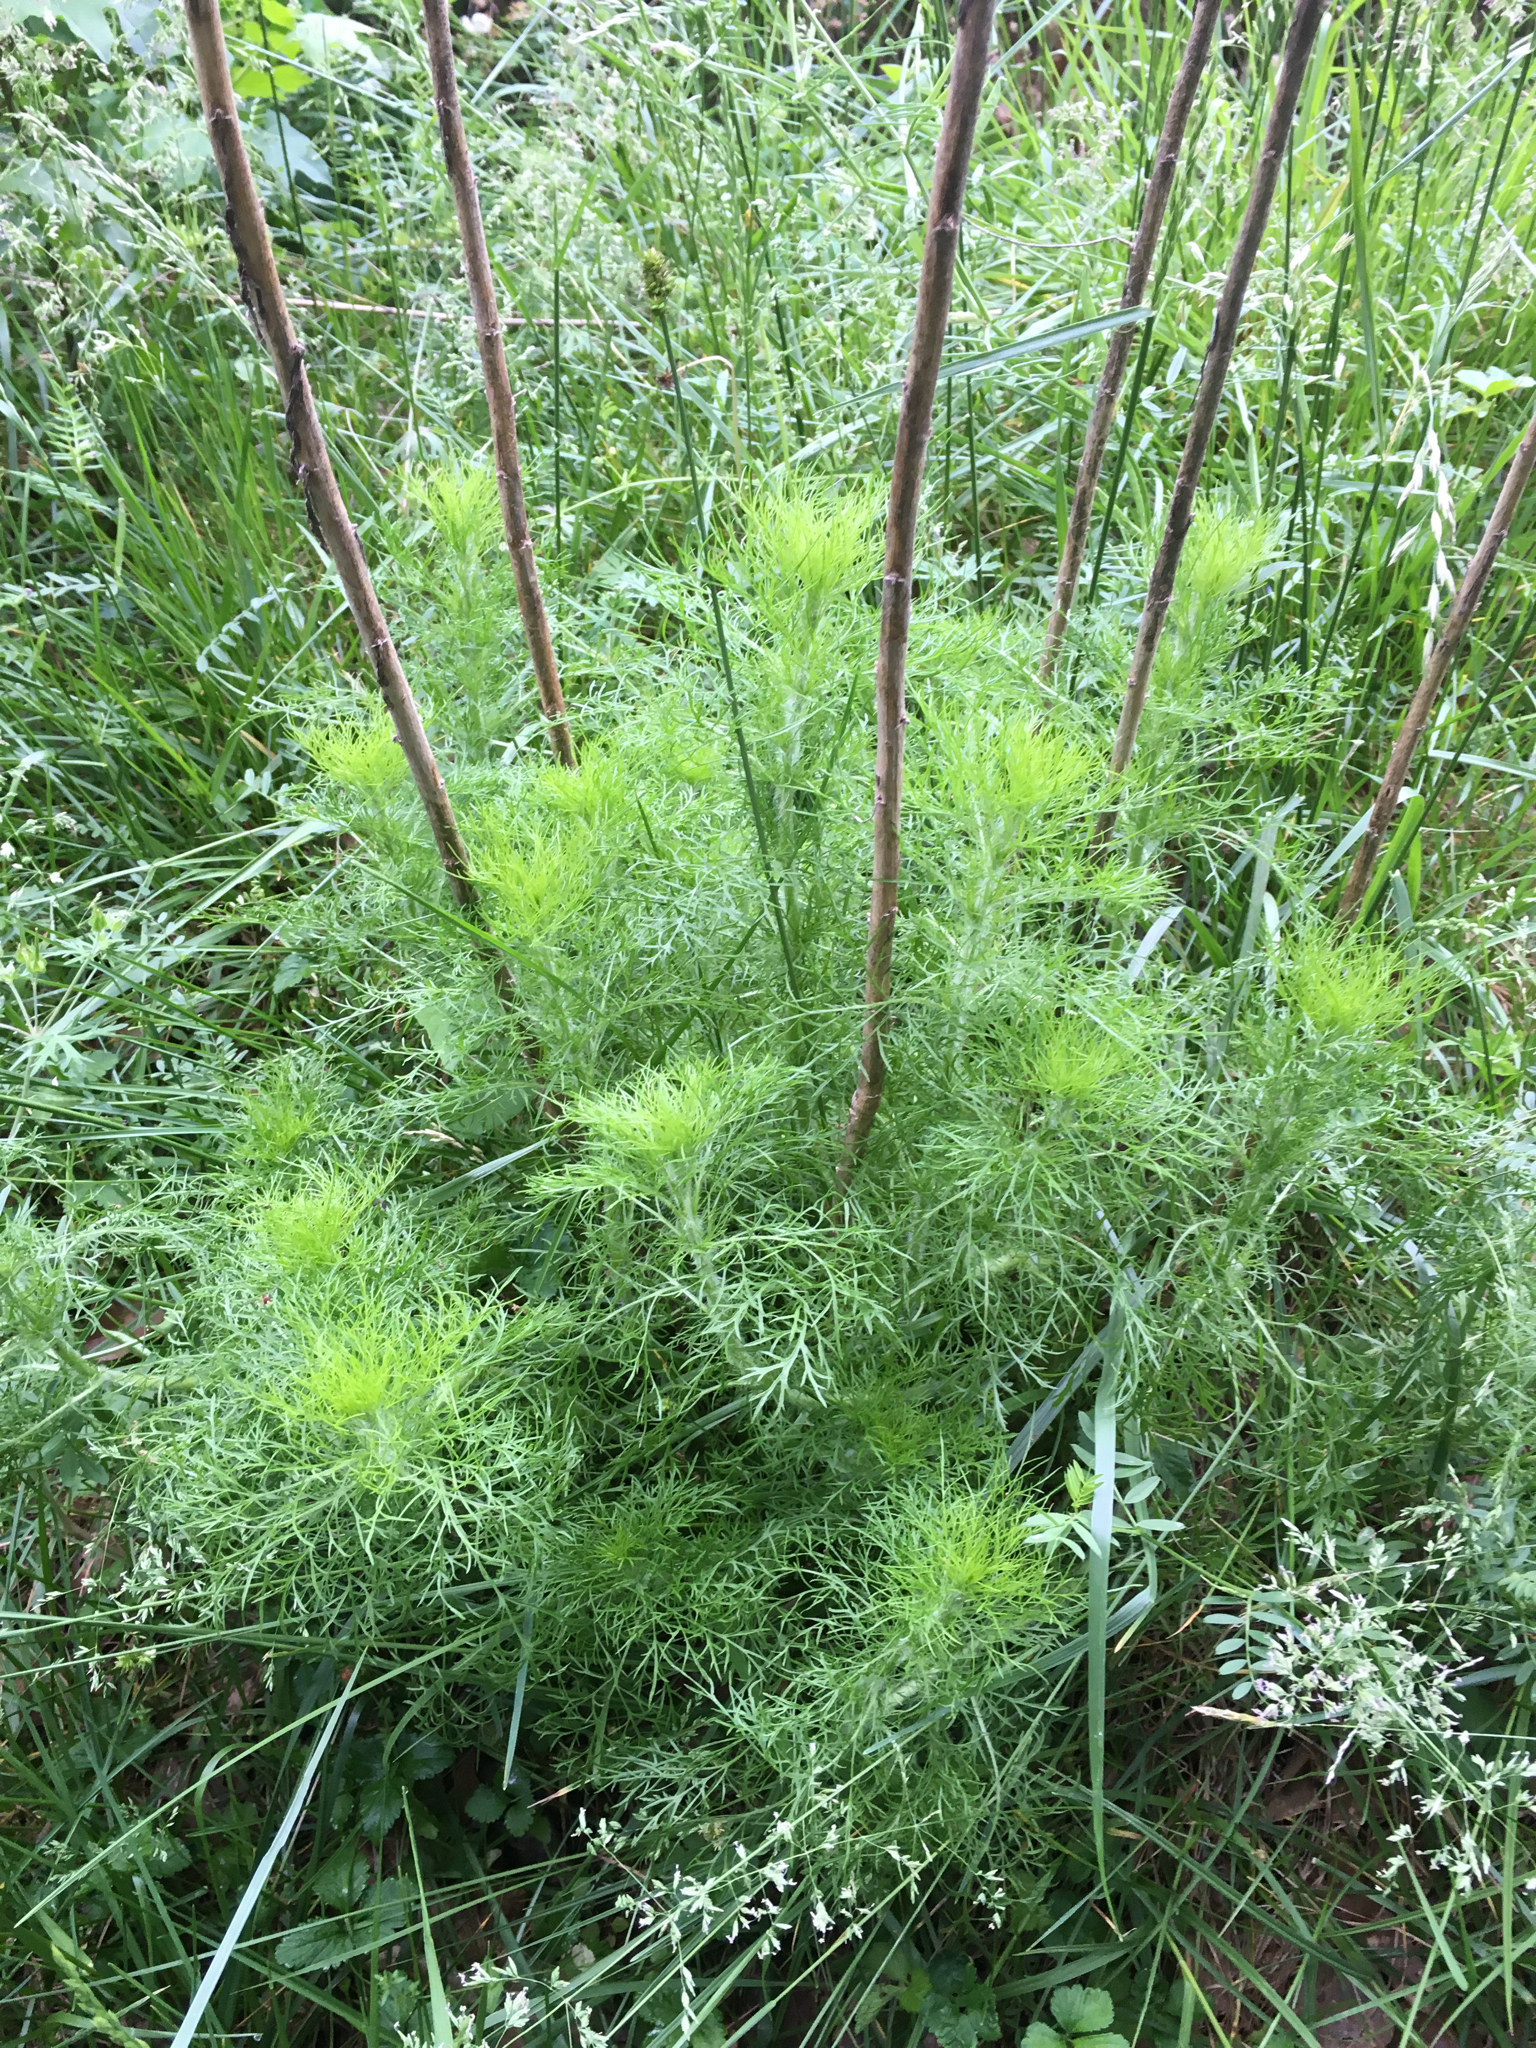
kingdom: Plantae
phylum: Tracheophyta
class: Magnoliopsida
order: Asterales
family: Asteraceae
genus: Eupatorium
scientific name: Eupatorium capillifolium
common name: Dog-fennel
